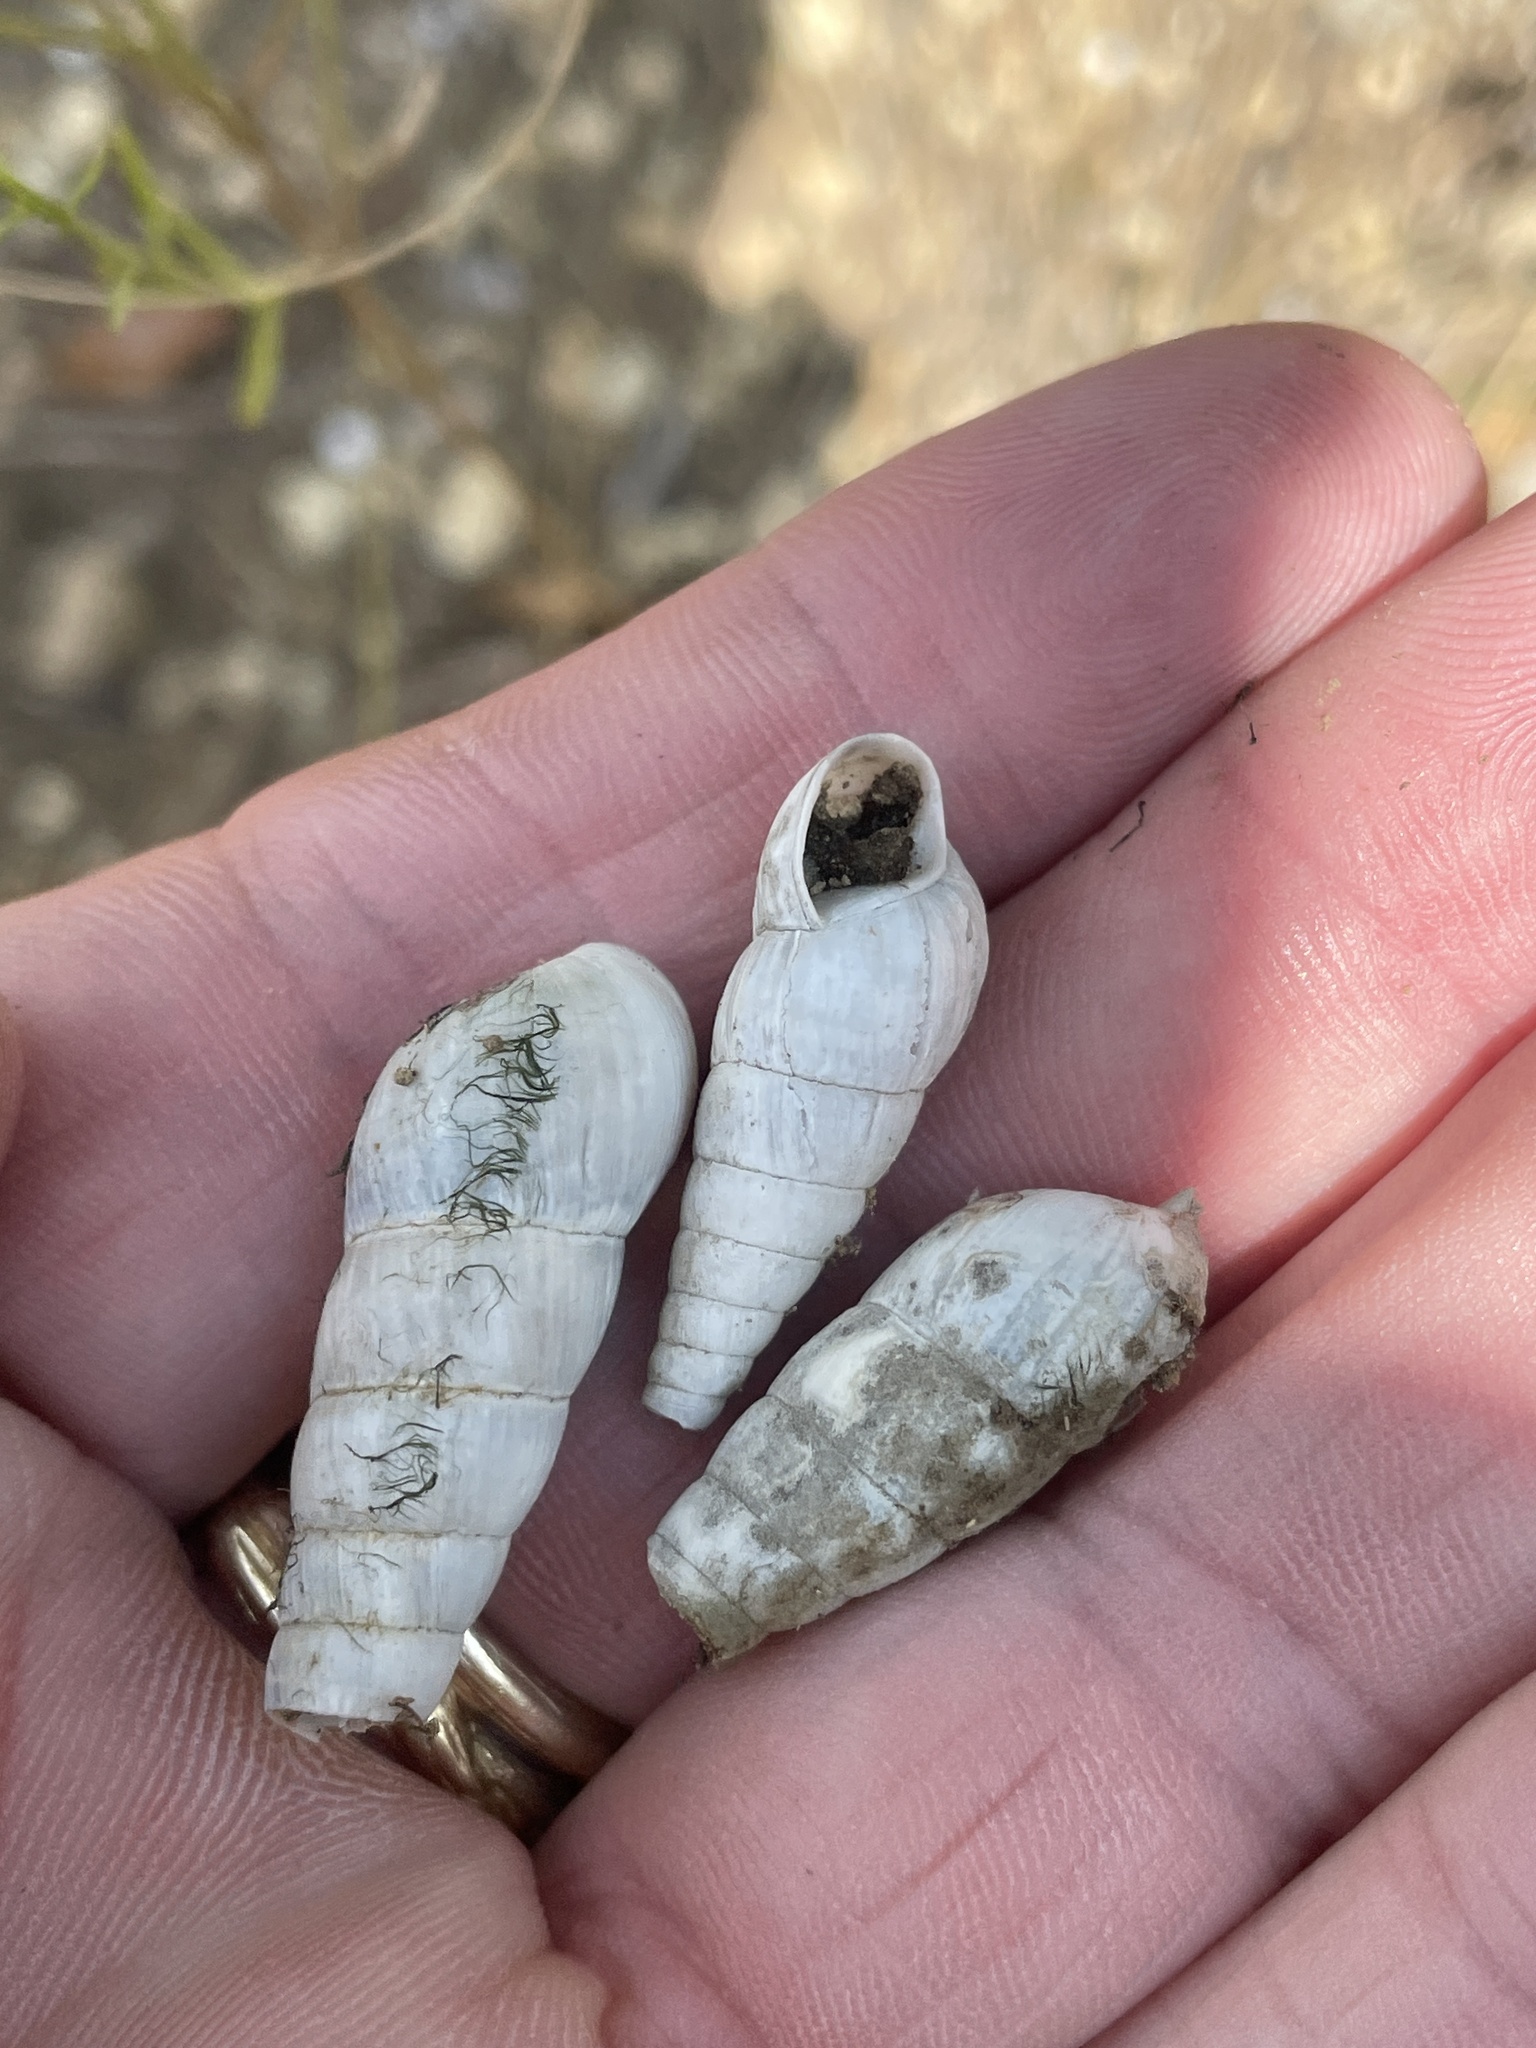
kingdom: Animalia
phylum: Mollusca
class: Gastropoda
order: Stylommatophora
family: Achatinidae
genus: Rumina
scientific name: Rumina decollata
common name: Decollate snail
